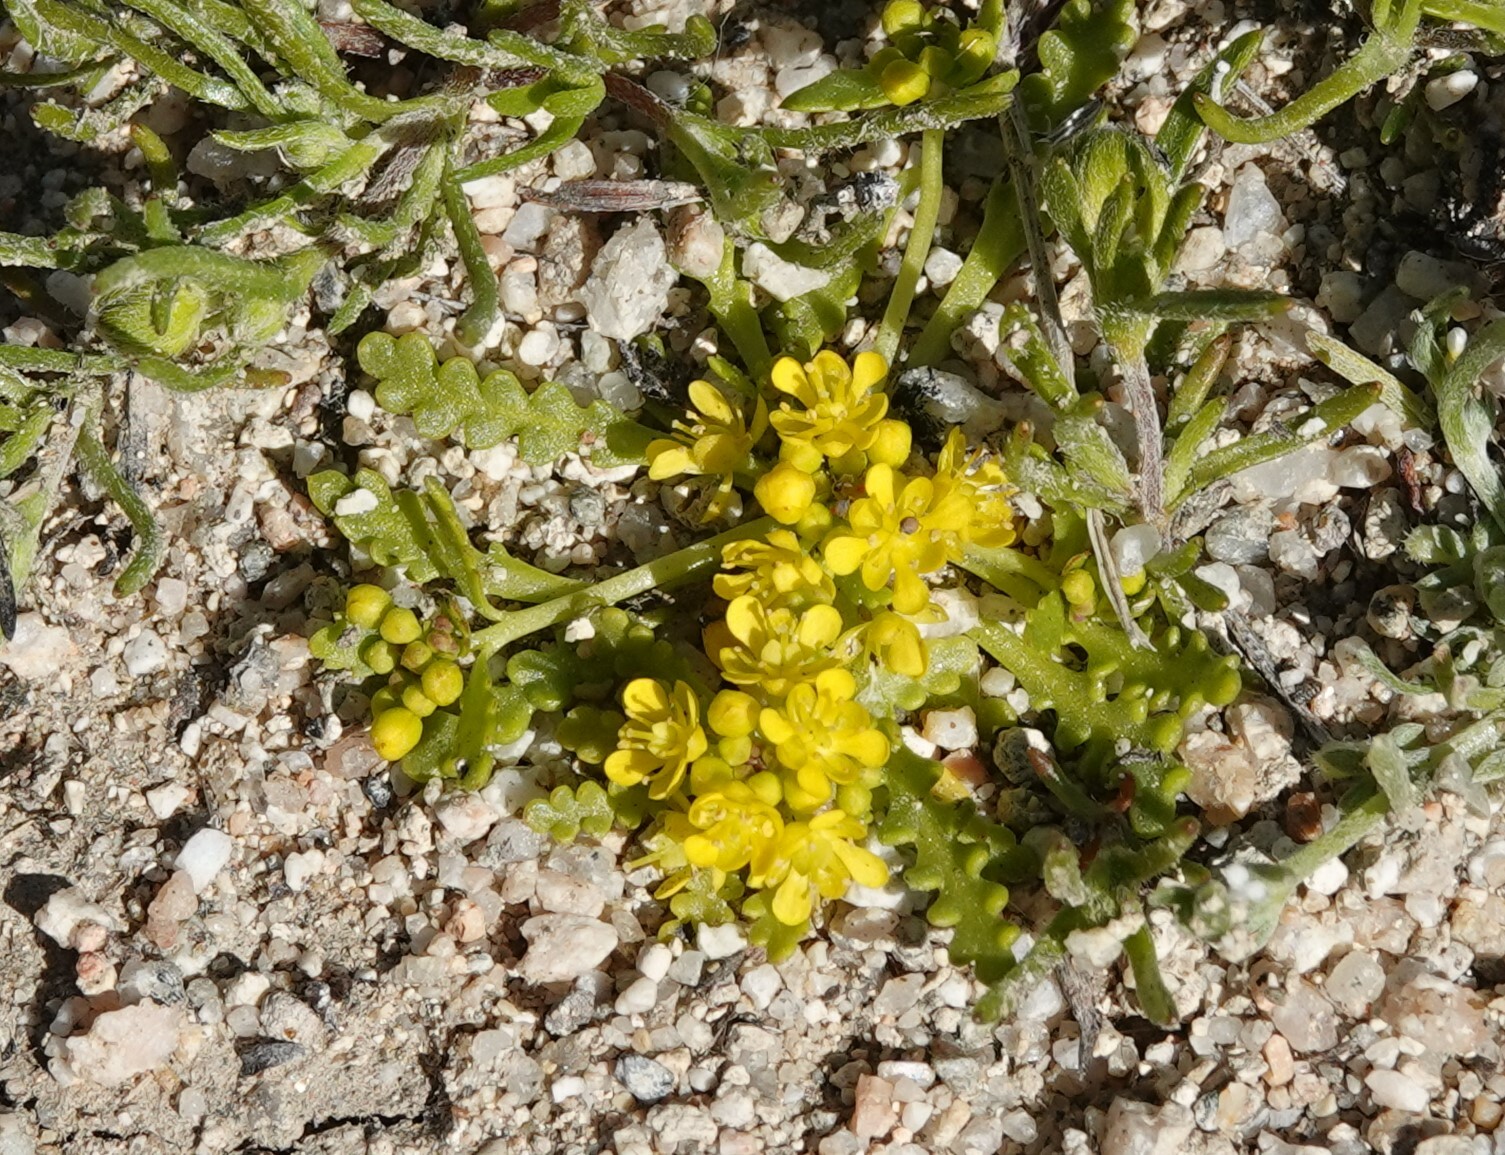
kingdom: Plantae
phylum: Tracheophyta
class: Magnoliopsida
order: Brassicales
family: Brassicaceae
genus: Lepidium
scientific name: Lepidium flavum
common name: Yellow pepperwort
